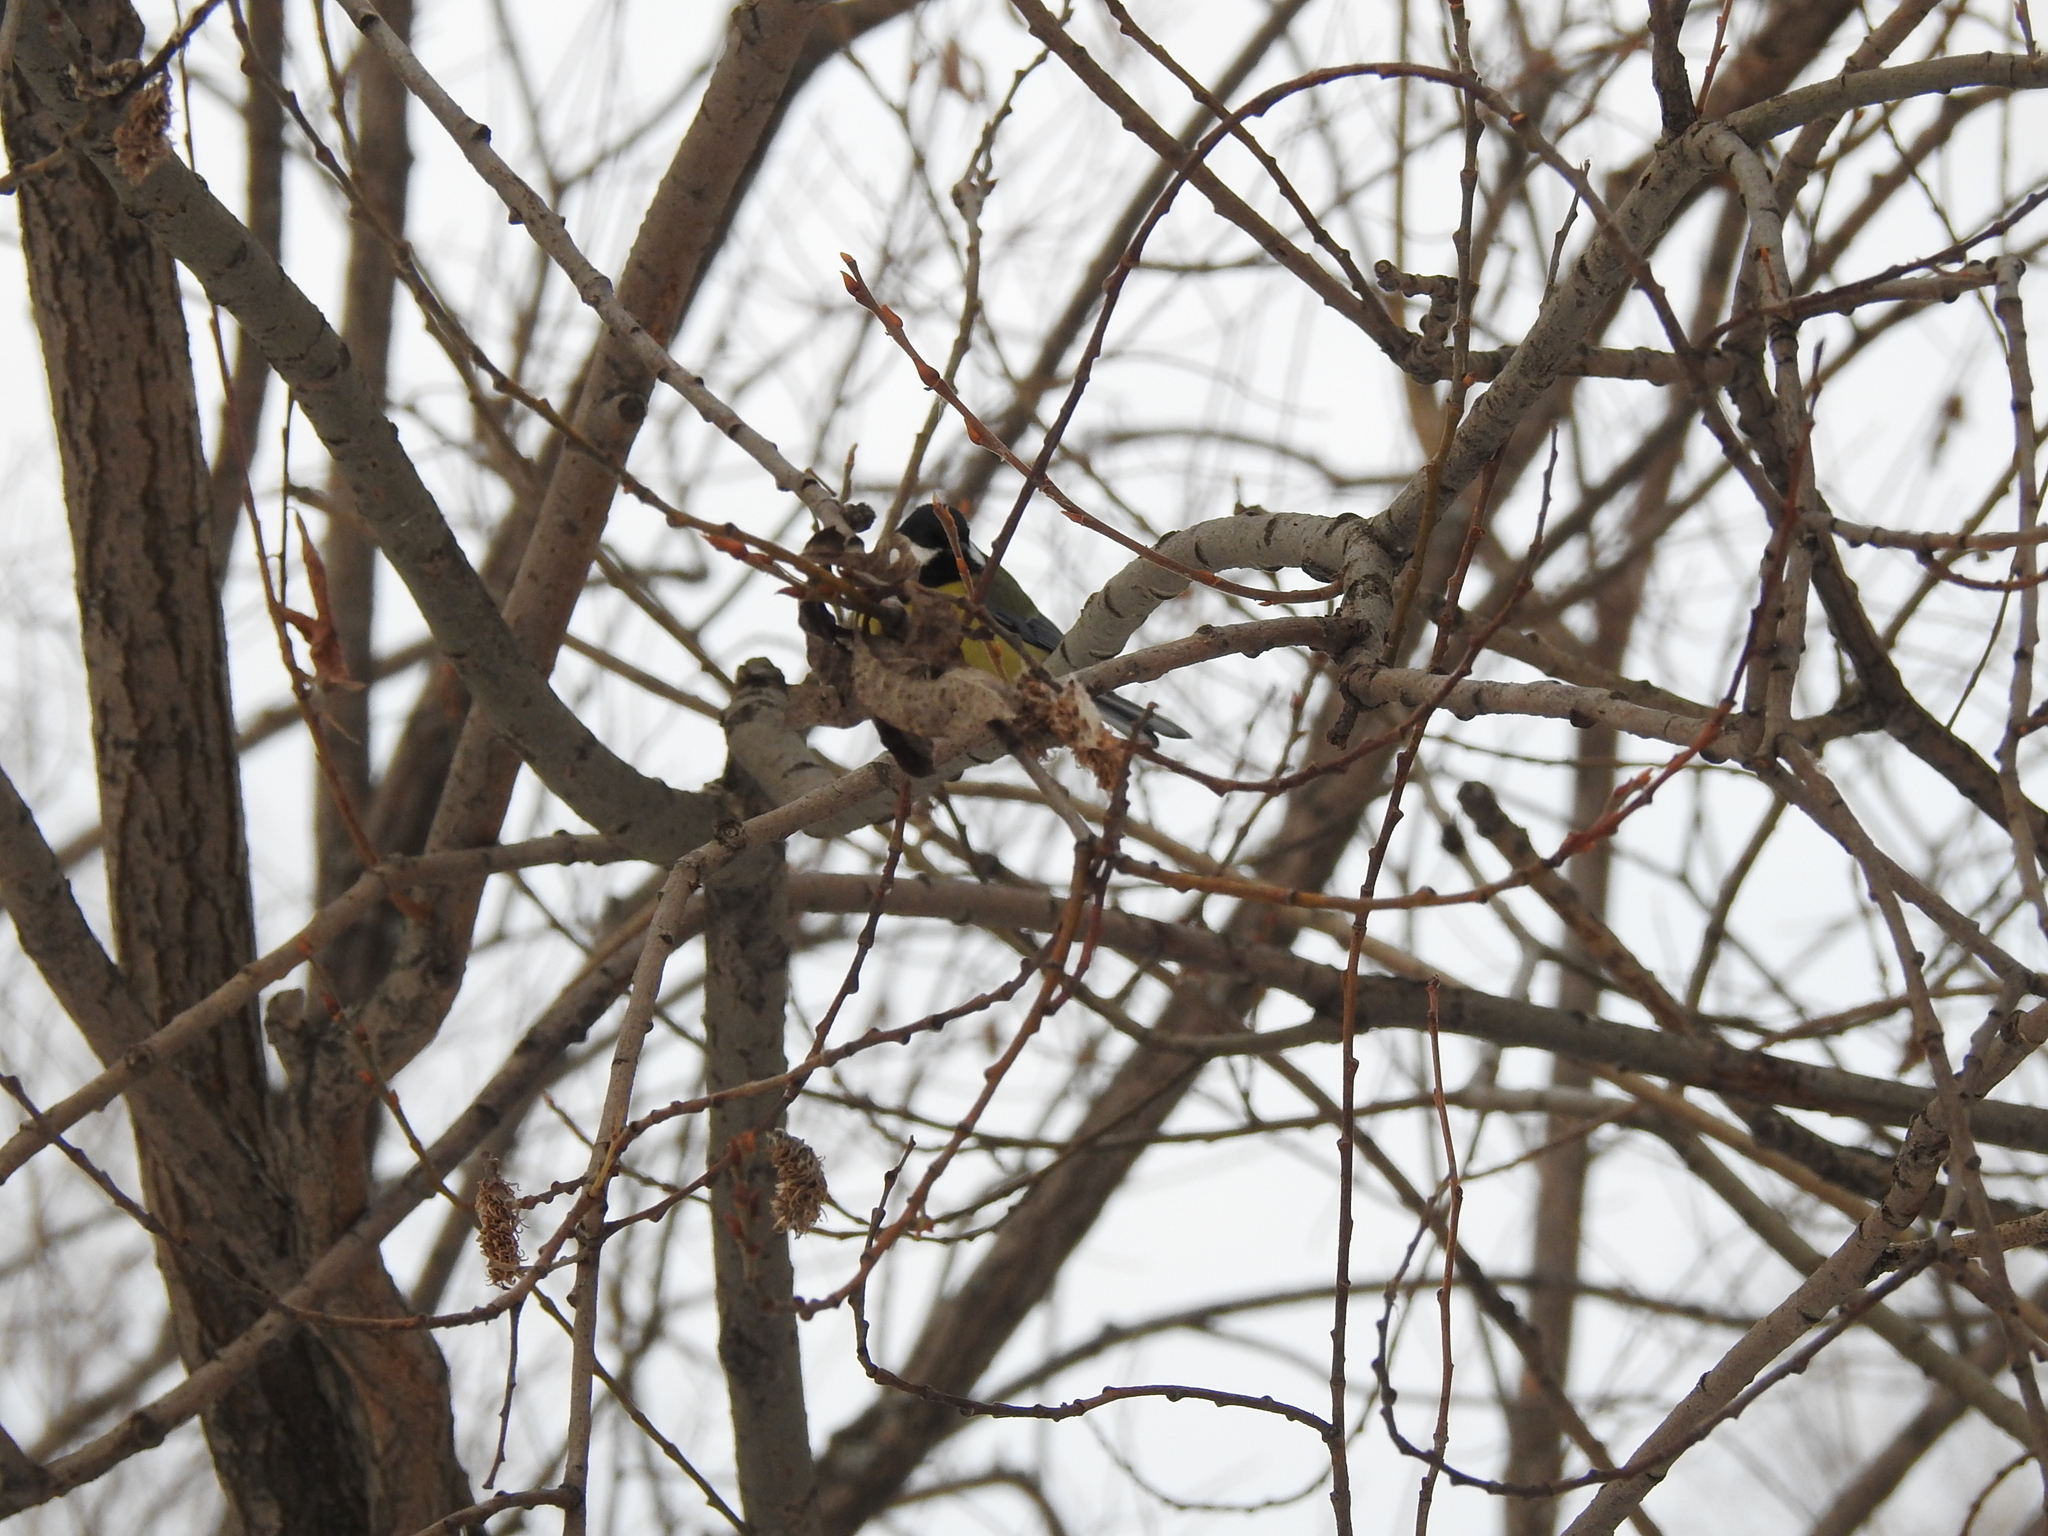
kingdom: Animalia
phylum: Chordata
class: Aves
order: Passeriformes
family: Paridae
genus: Parus
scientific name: Parus major
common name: Great tit
